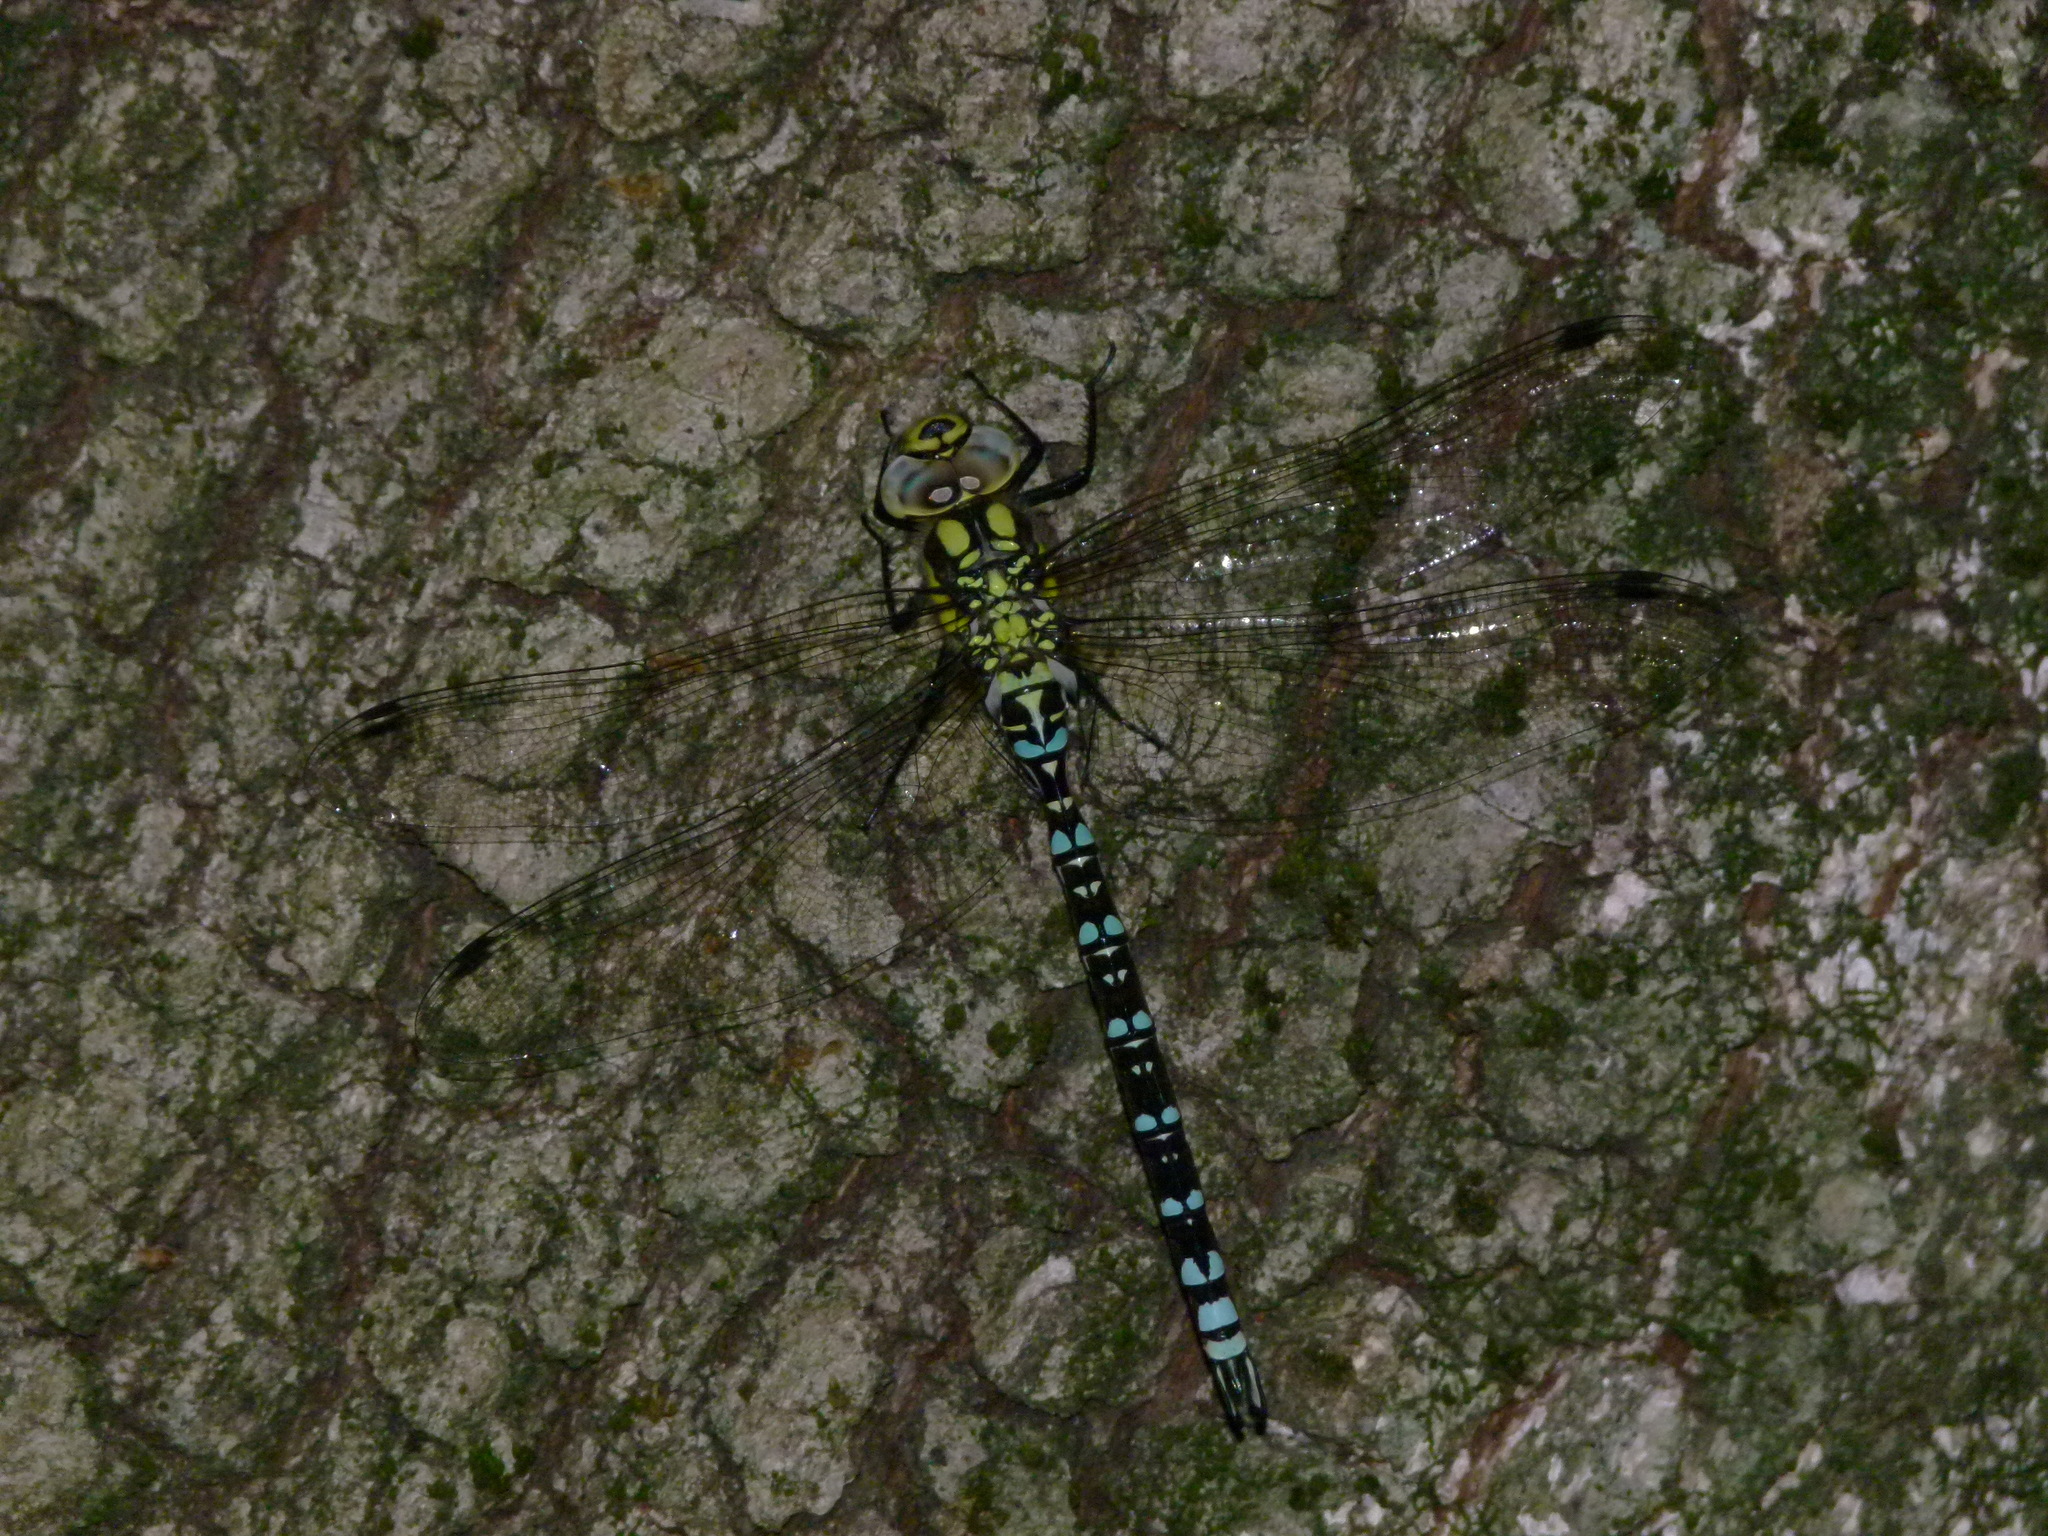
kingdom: Animalia
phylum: Arthropoda
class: Insecta
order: Odonata
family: Aeshnidae
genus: Aeshna
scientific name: Aeshna cyanea
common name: Southern hawker
